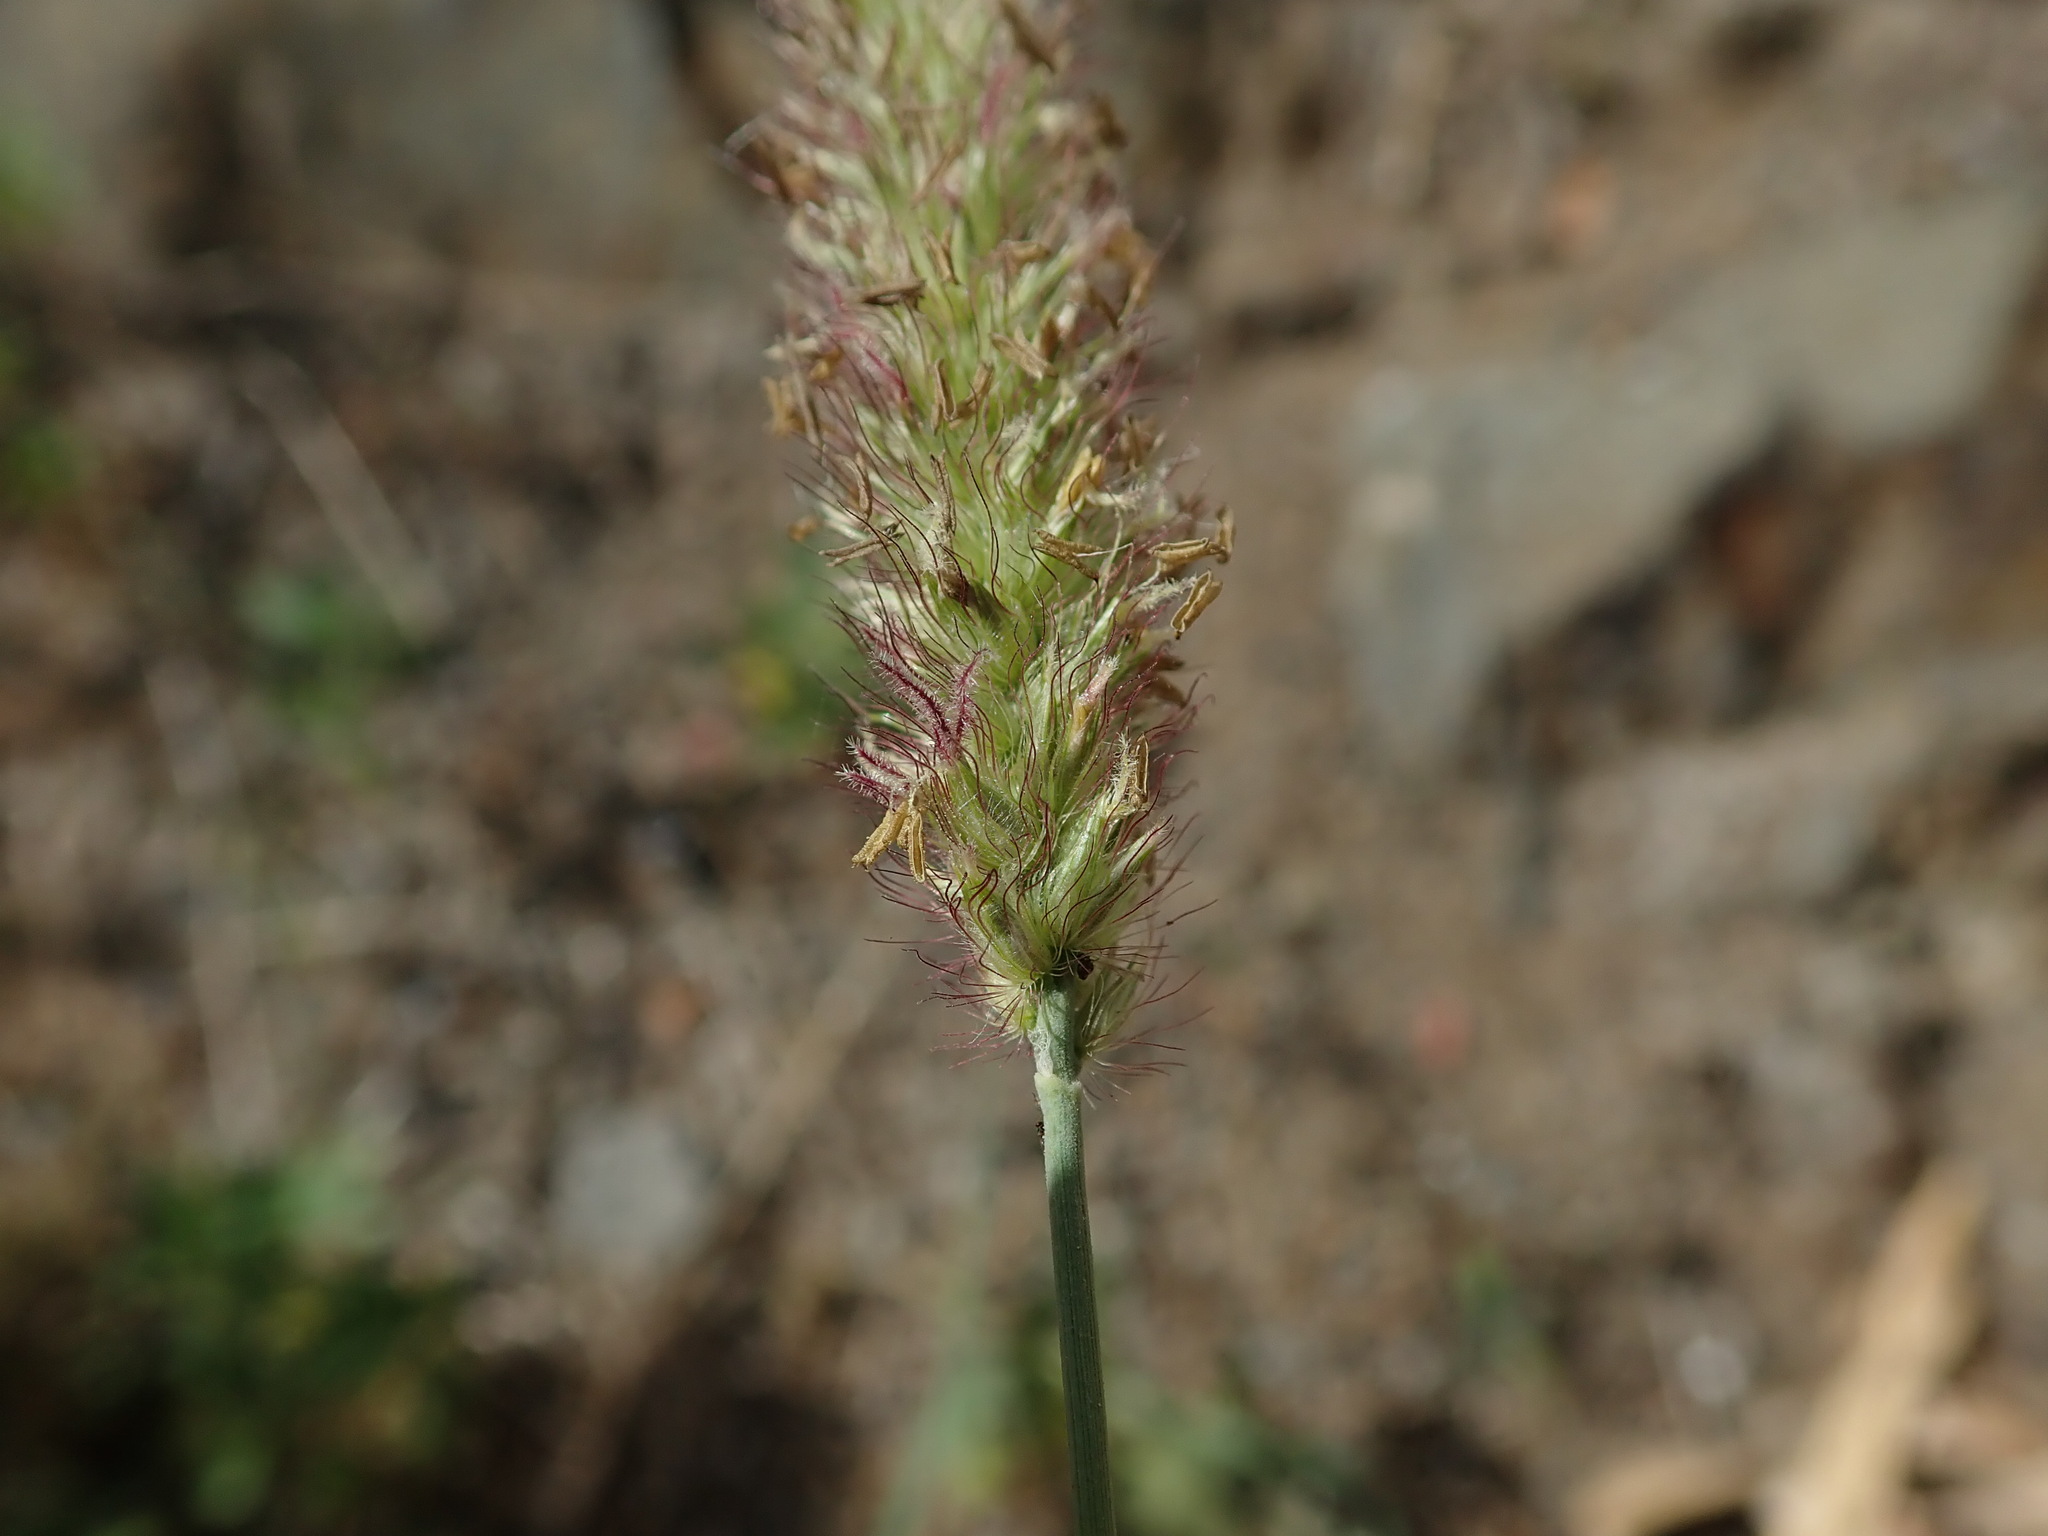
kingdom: Plantae
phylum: Tracheophyta
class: Liliopsida
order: Poales
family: Poaceae
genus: Cenchrus
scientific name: Cenchrus ciliaris
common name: Buffelgrass
